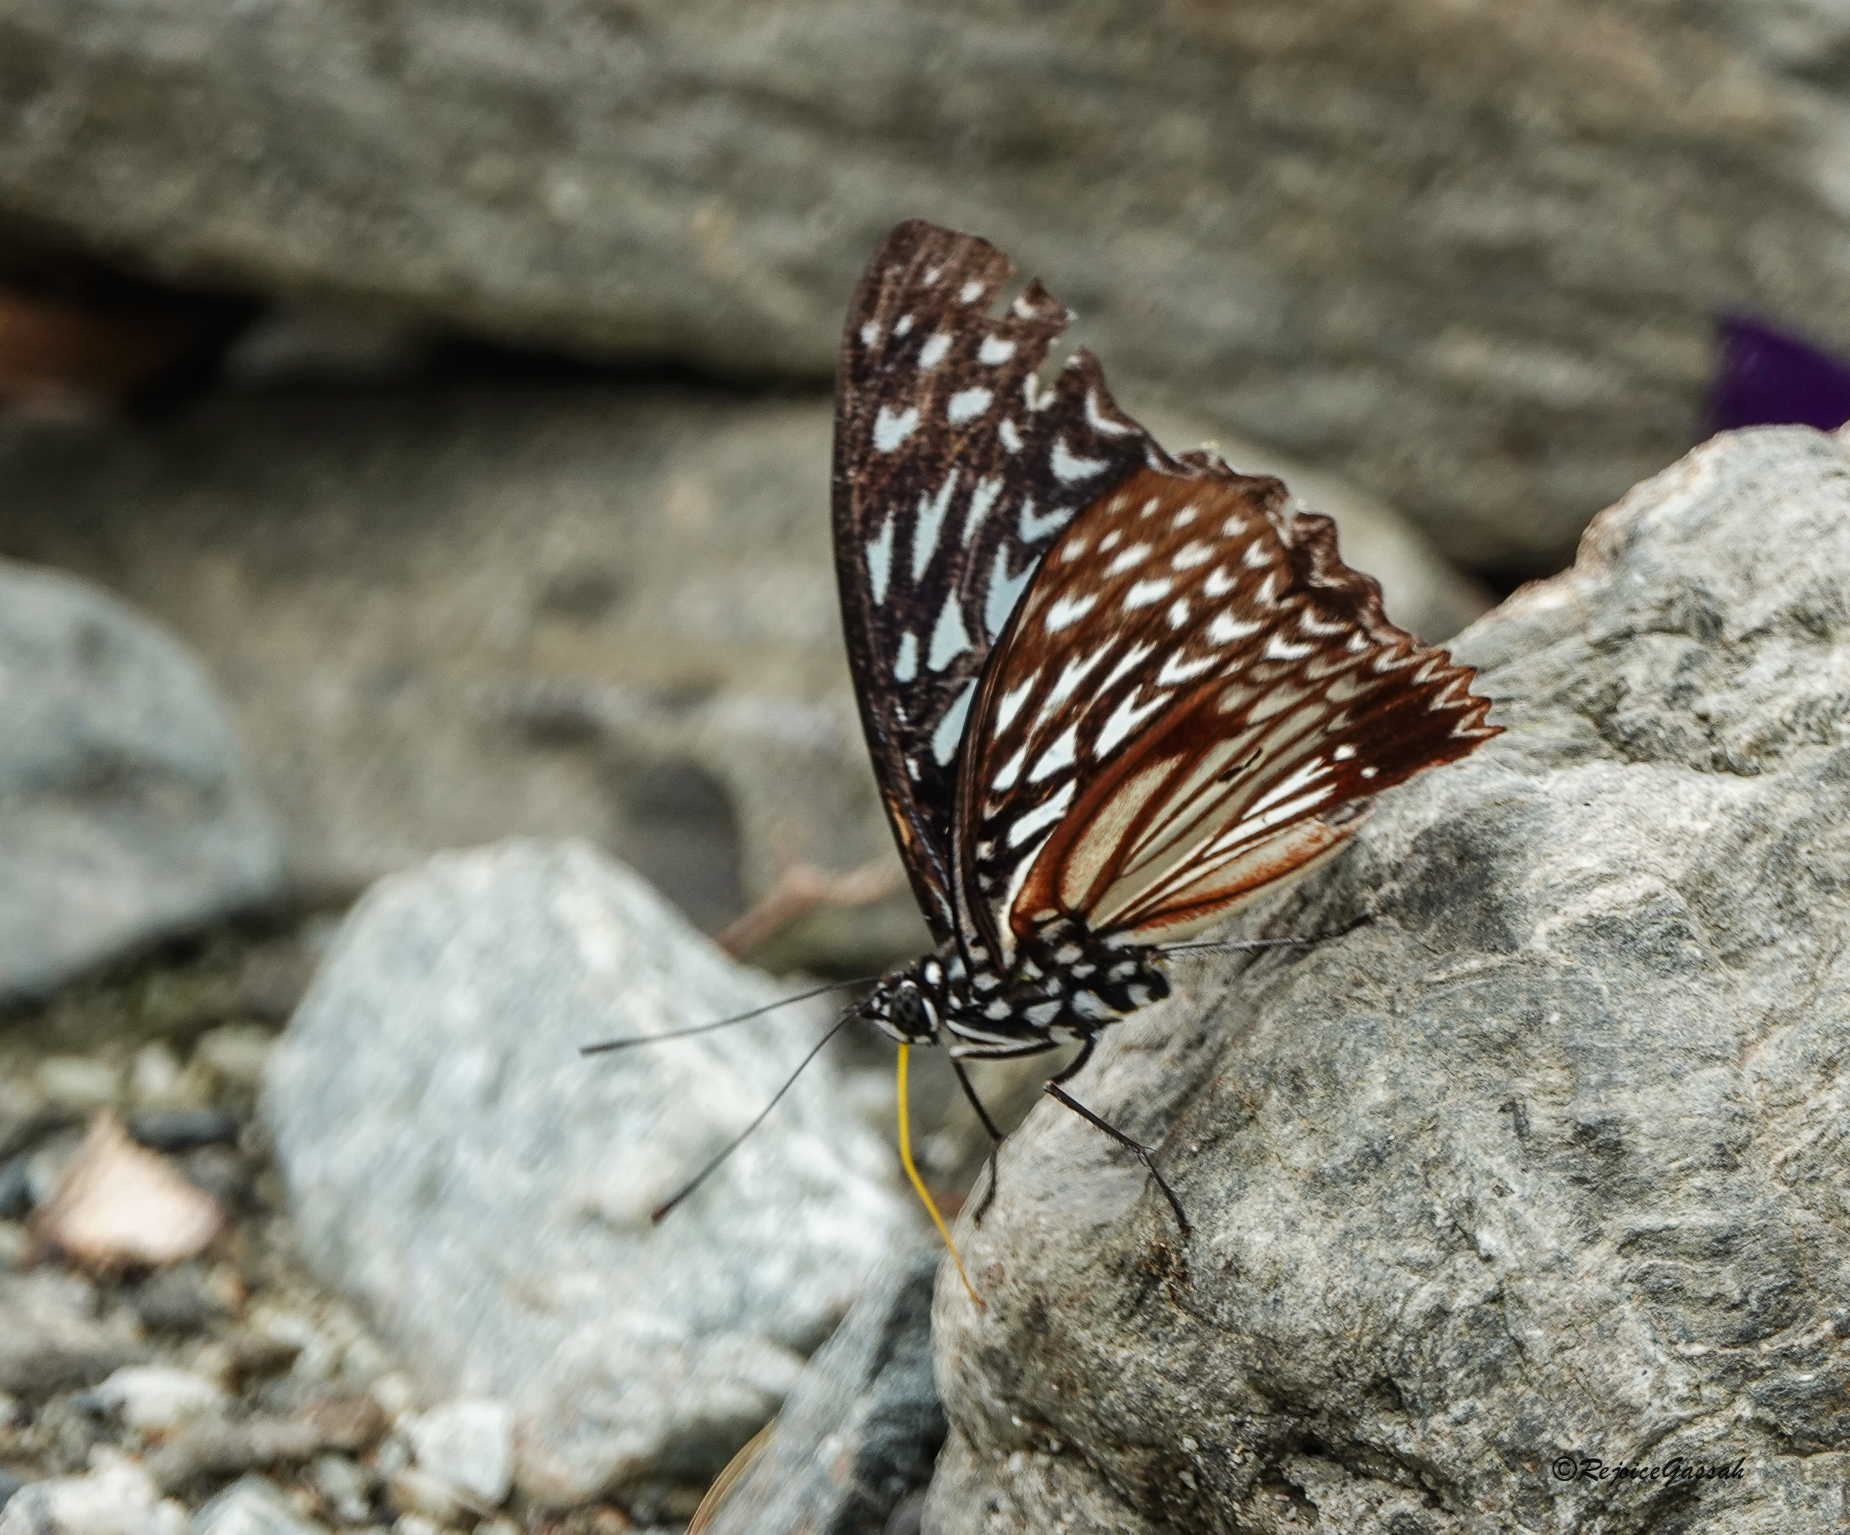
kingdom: Animalia
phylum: Arthropoda
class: Insecta
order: Lepidoptera
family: Nymphalidae
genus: Hestinalis
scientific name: Hestinalis nama
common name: Circe
